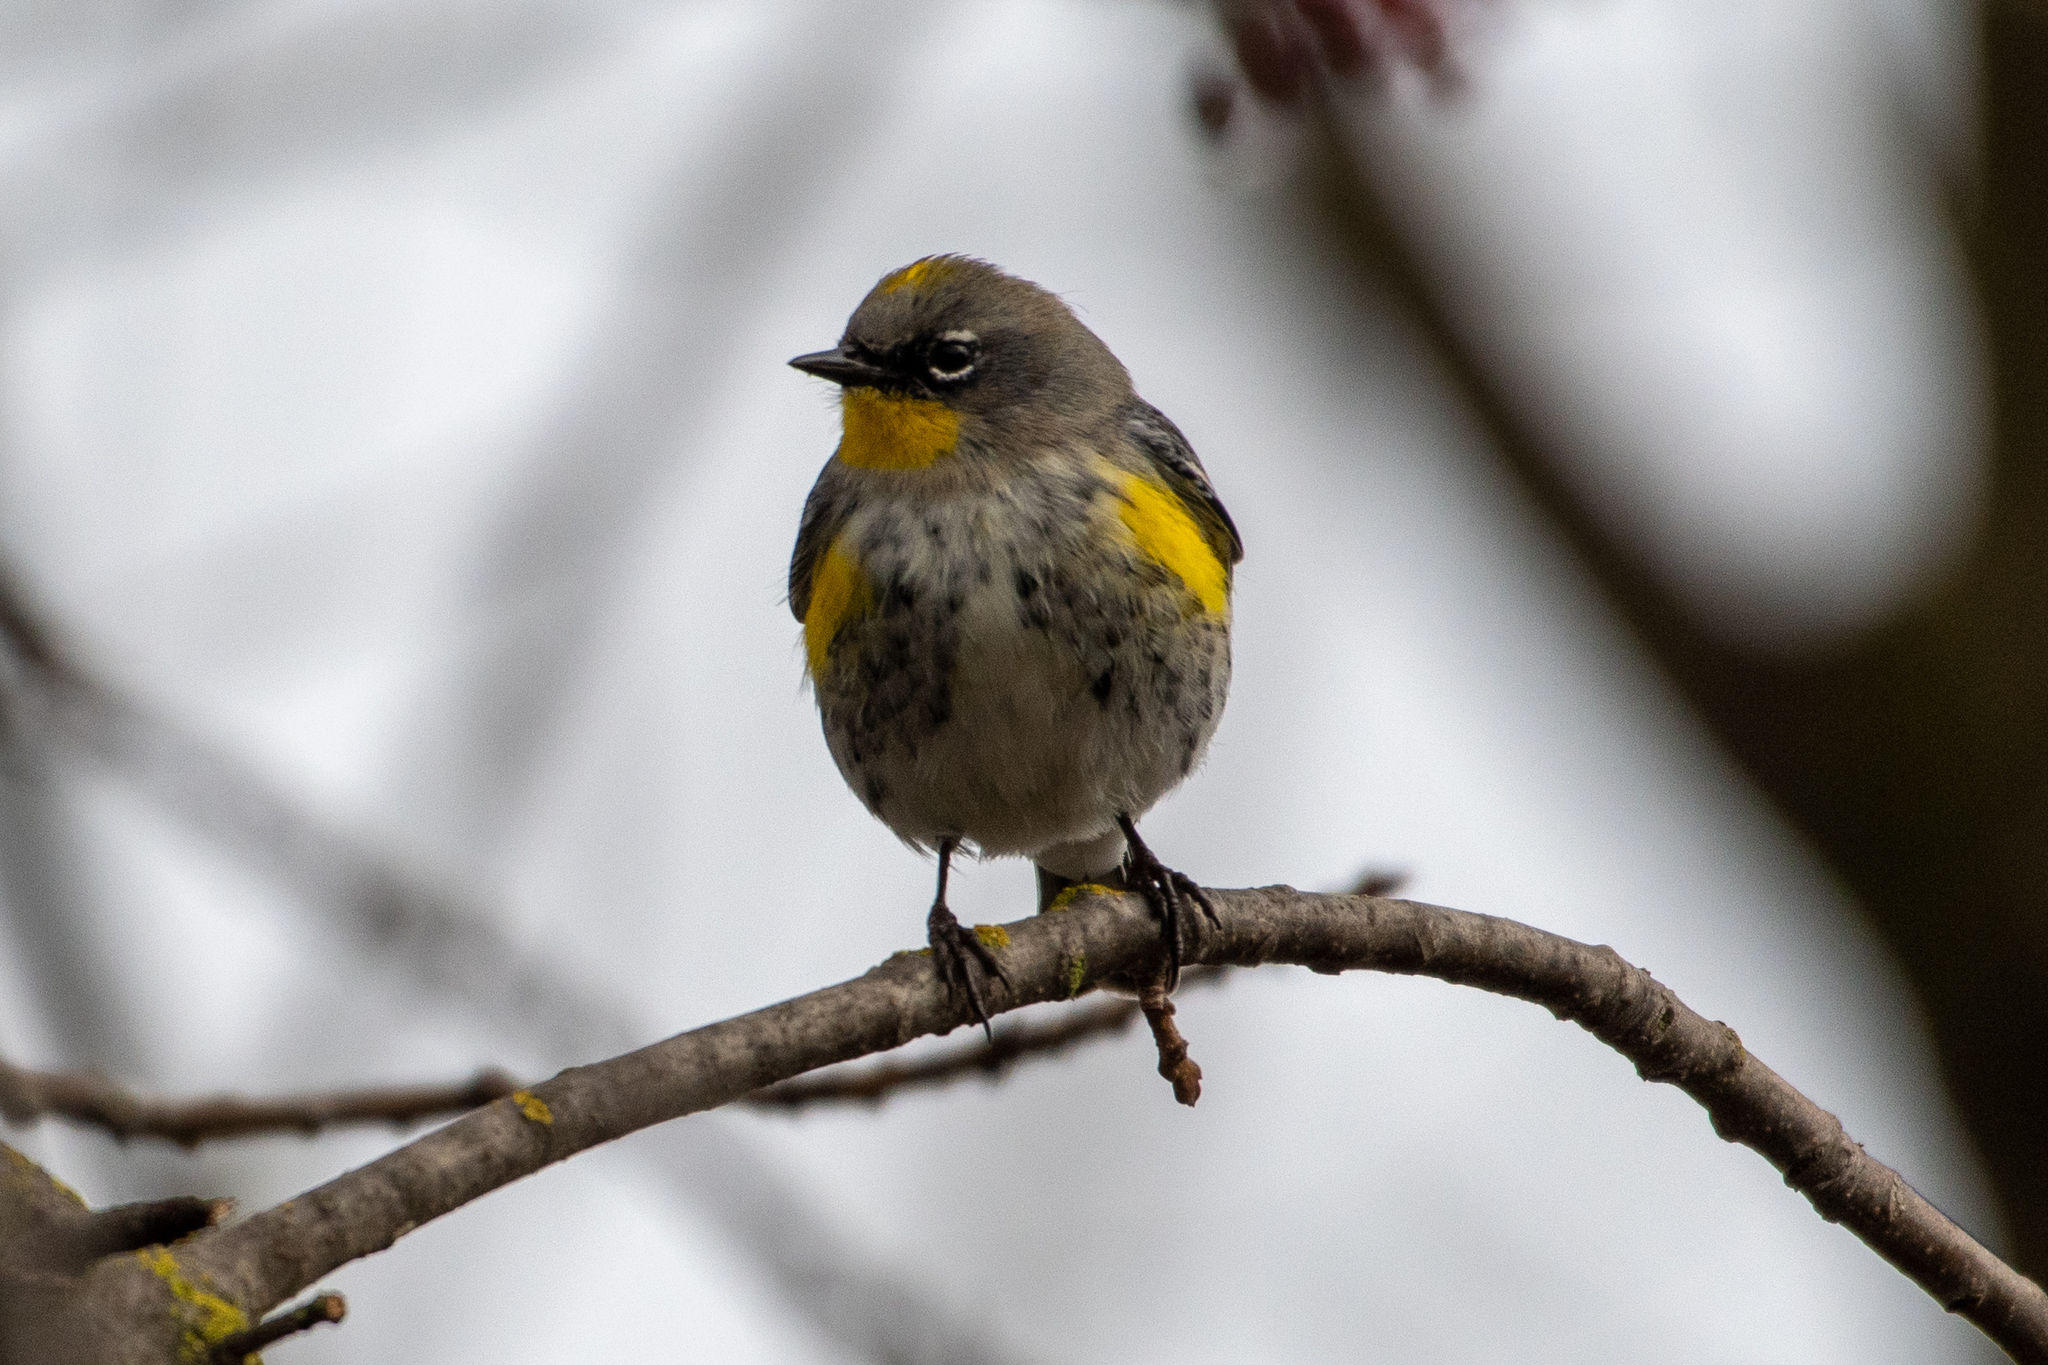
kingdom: Animalia
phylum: Chordata
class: Aves
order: Passeriformes
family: Parulidae
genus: Setophaga
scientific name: Setophaga coronata
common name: Myrtle warbler
